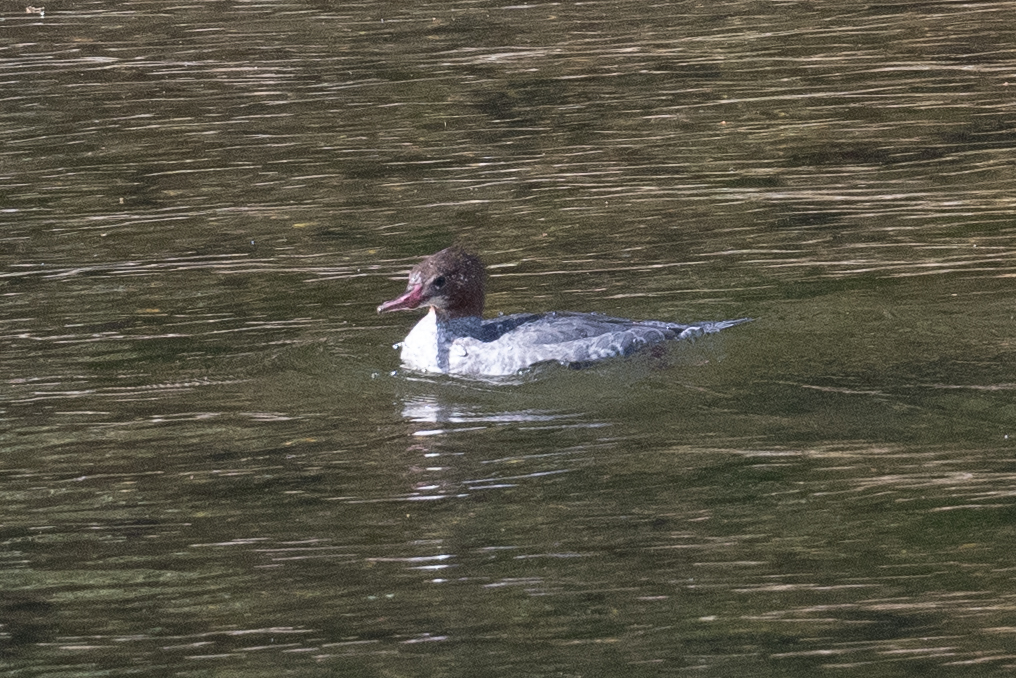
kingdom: Animalia
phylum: Chordata
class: Aves
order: Anseriformes
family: Anatidae
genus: Mergus
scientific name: Mergus merganser
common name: Common merganser
